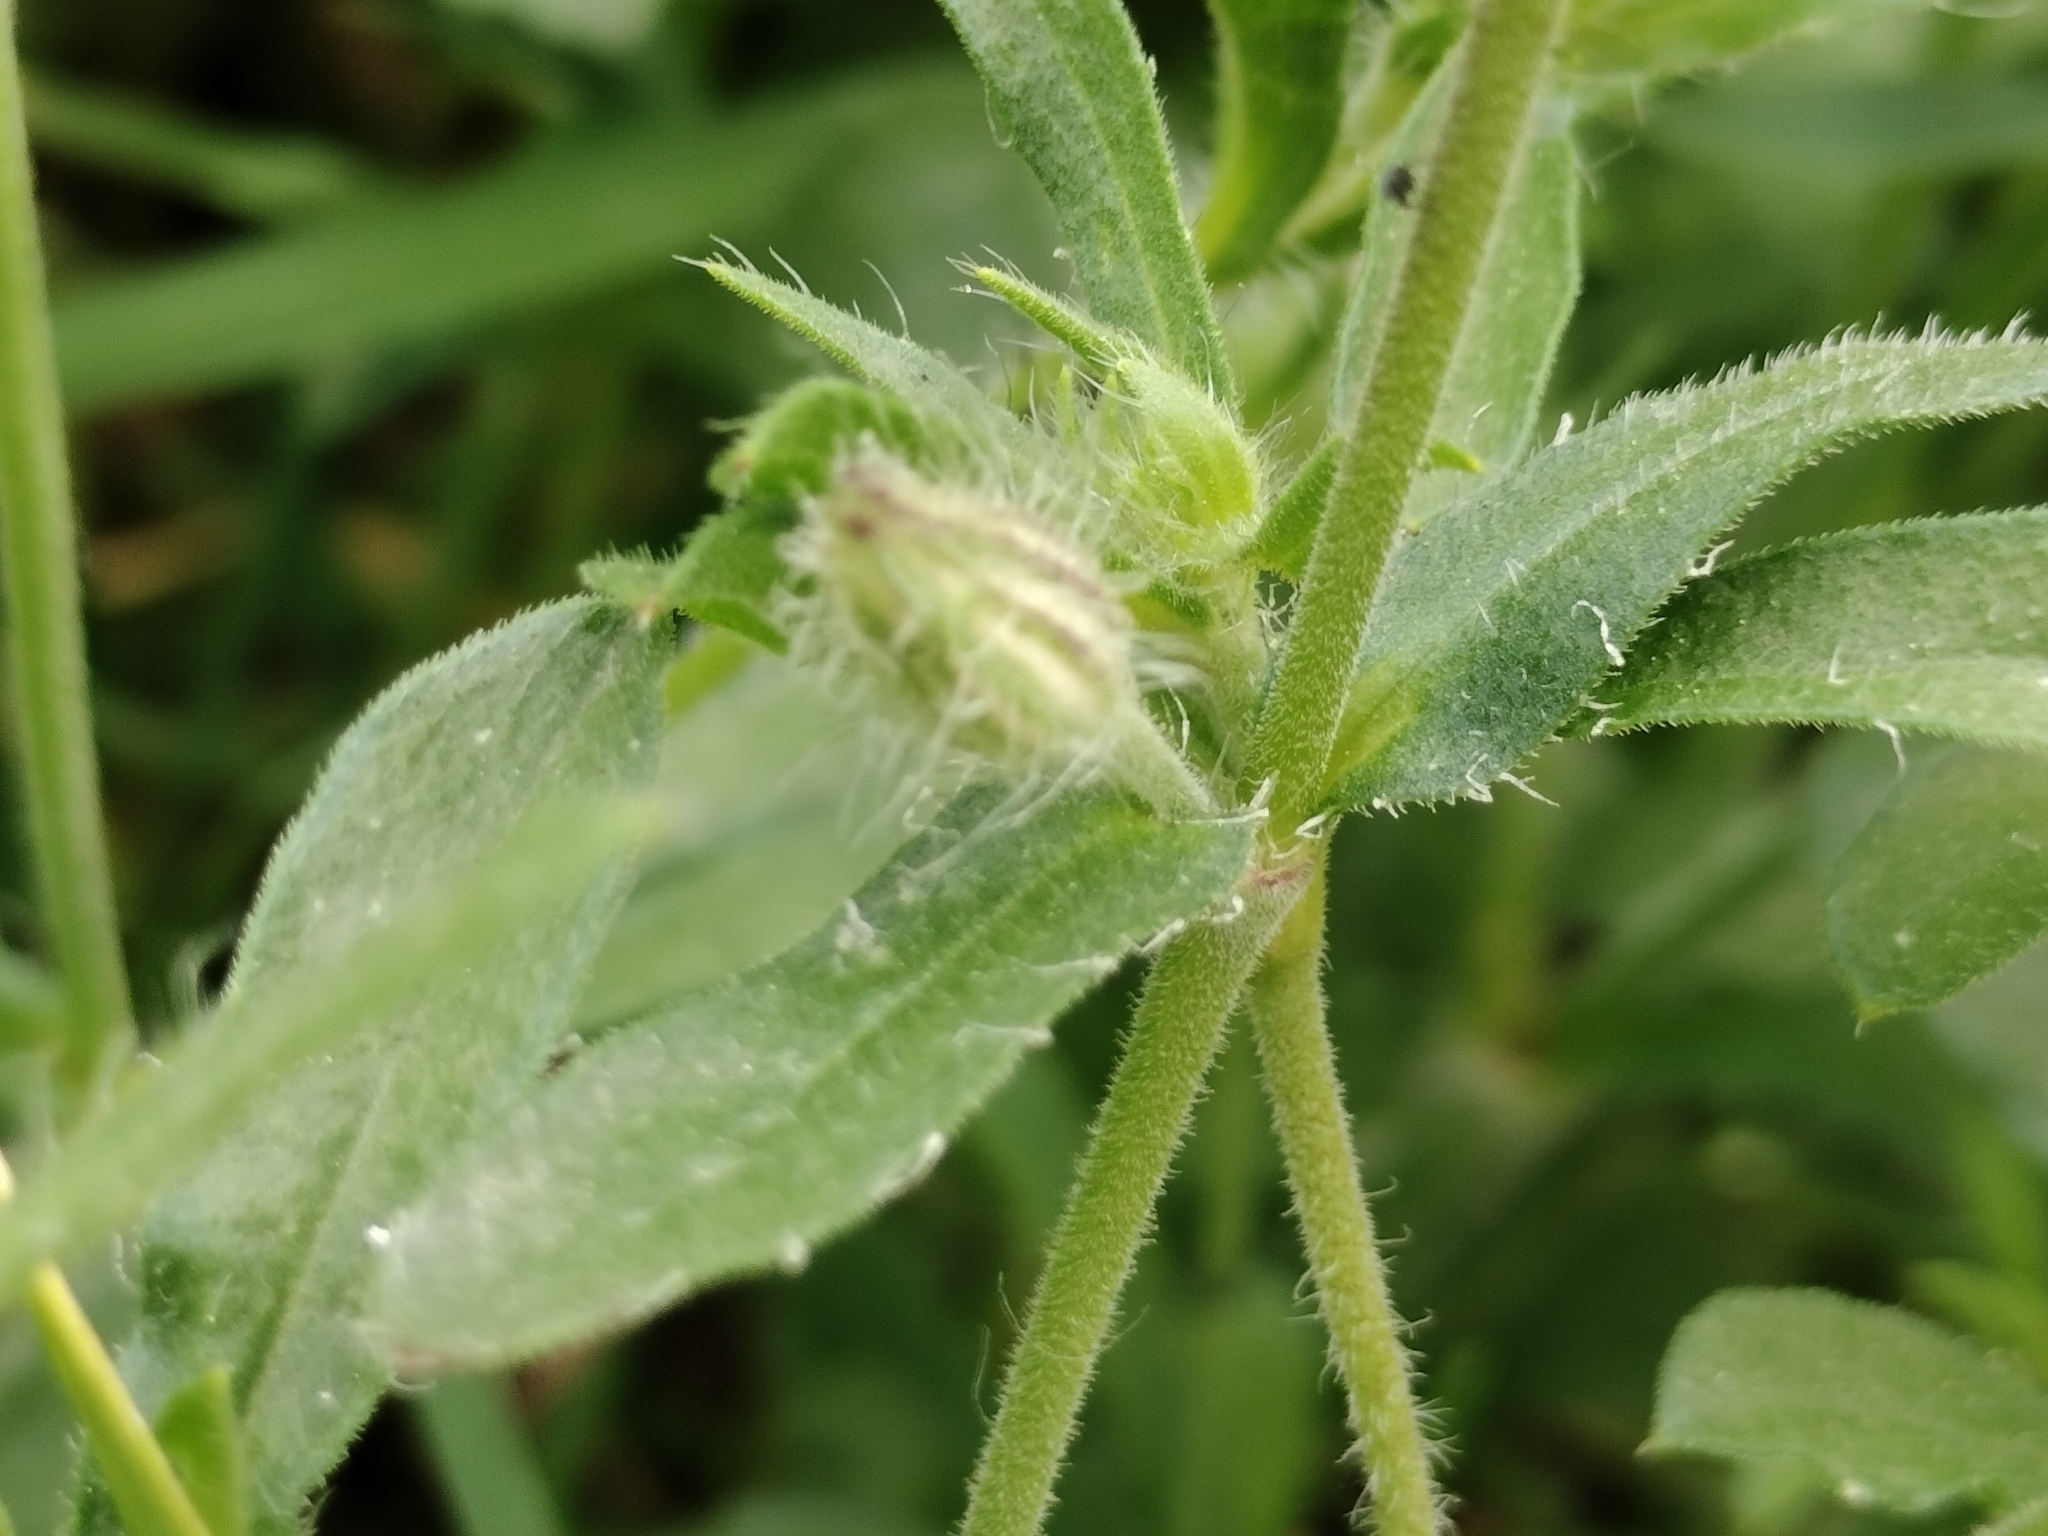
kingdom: Plantae
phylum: Tracheophyta
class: Magnoliopsida
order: Caryophyllales
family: Caryophyllaceae
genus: Silene
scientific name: Silene gallica
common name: Small-flowered catchfly
